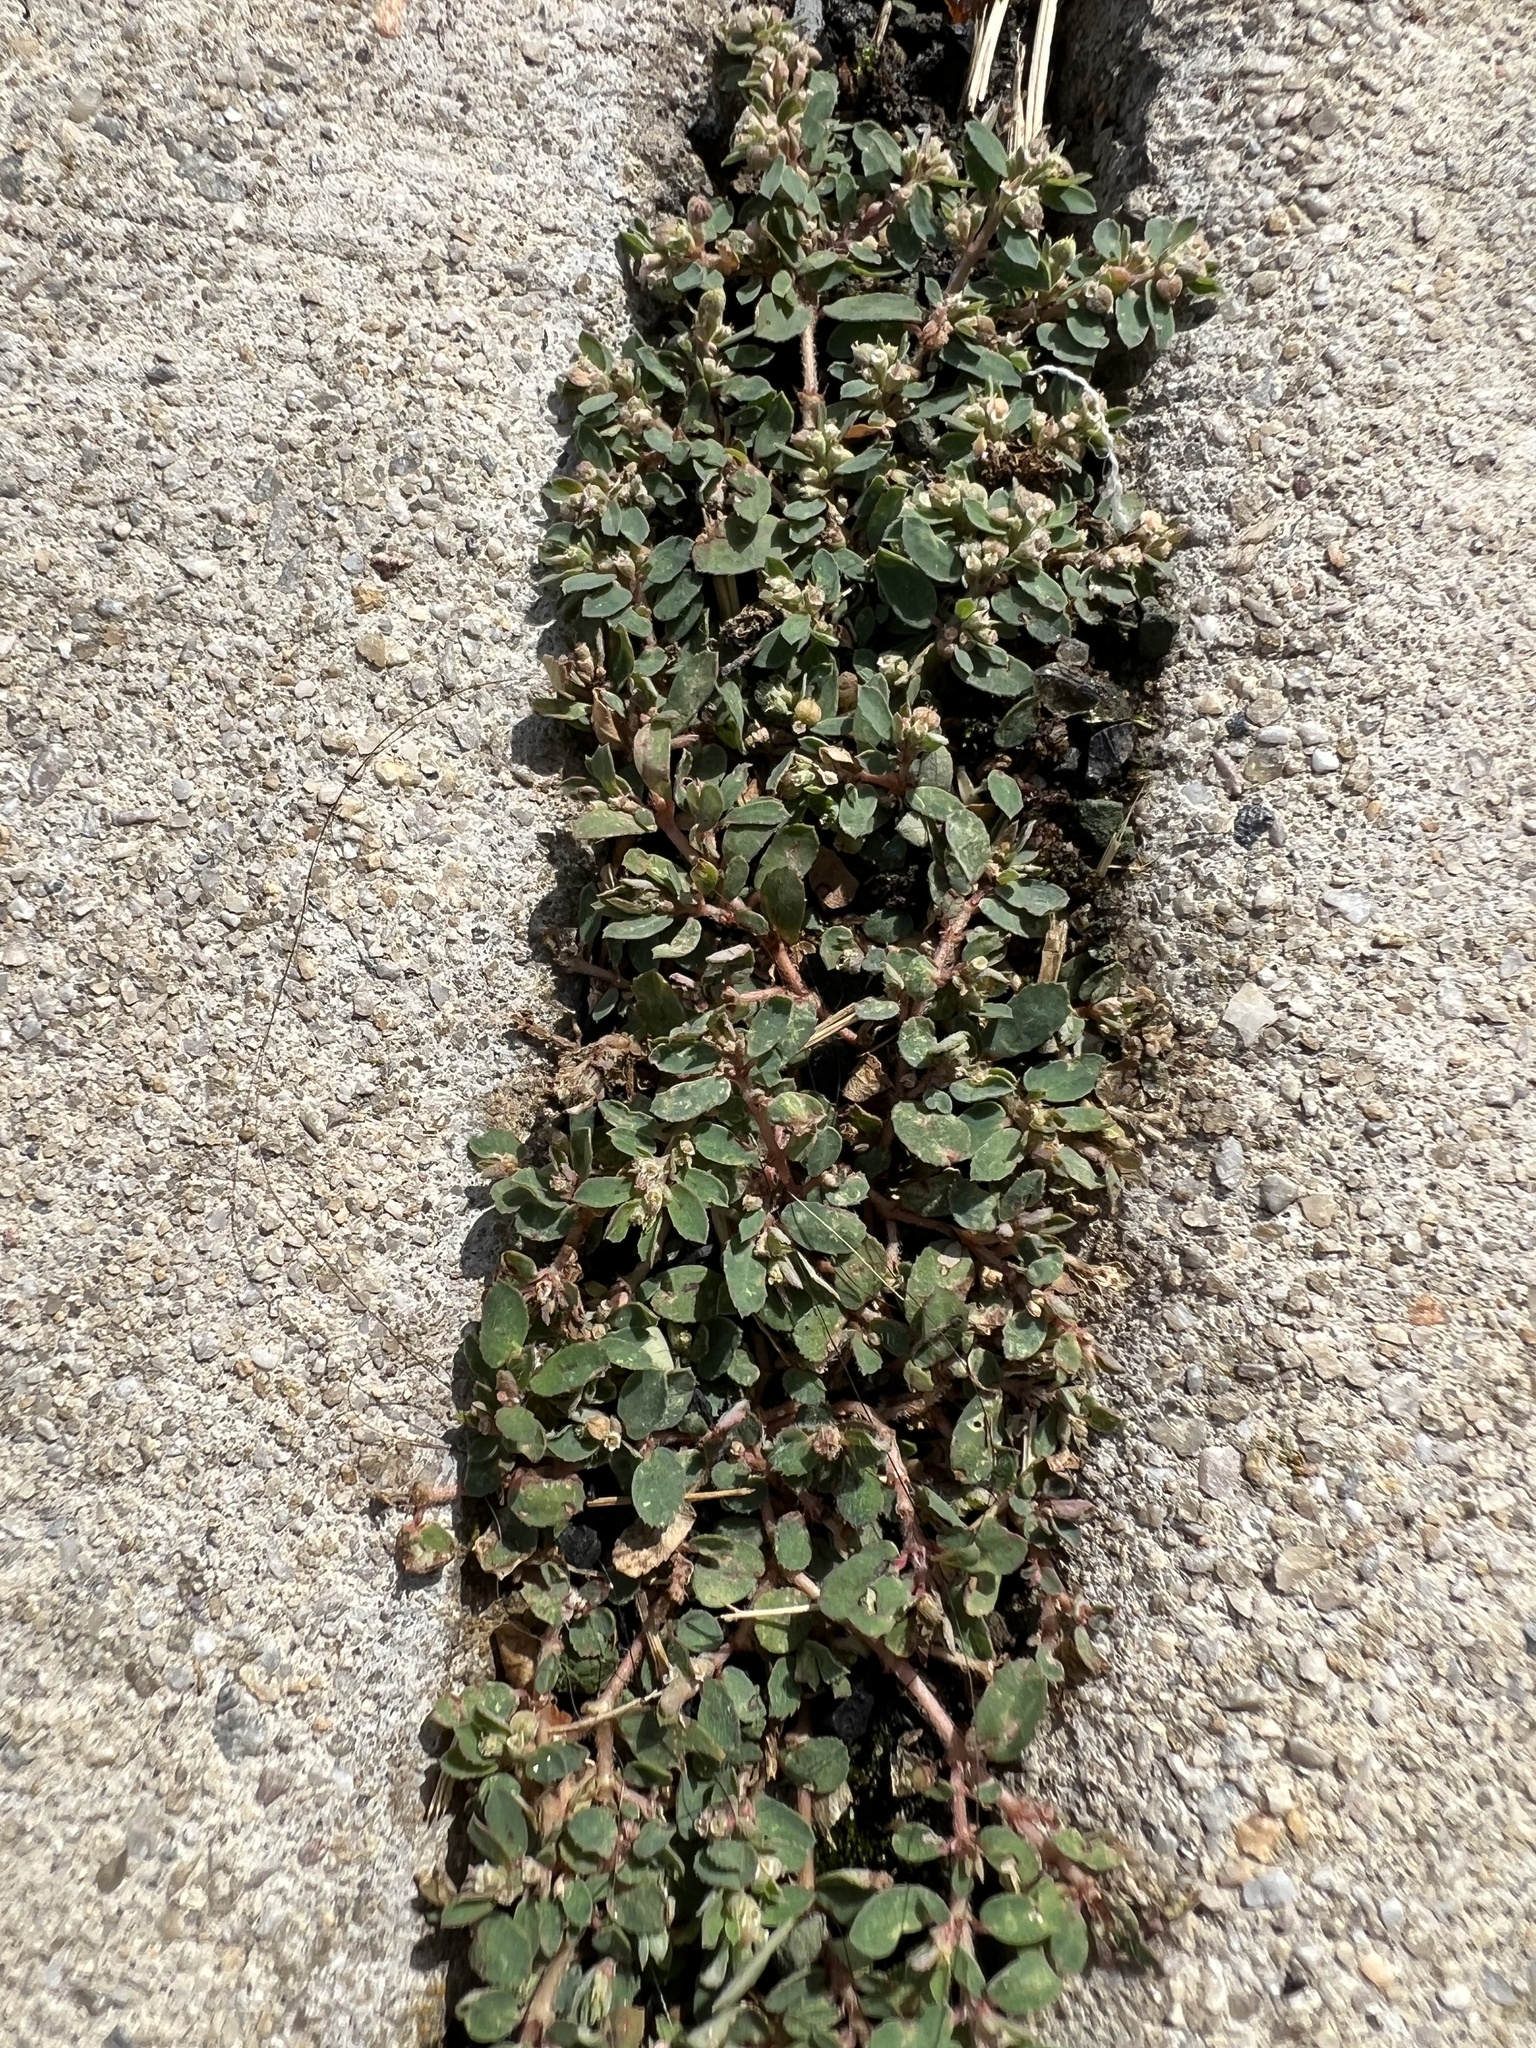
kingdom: Plantae
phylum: Tracheophyta
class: Magnoliopsida
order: Malpighiales
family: Euphorbiaceae
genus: Euphorbia
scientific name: Euphorbia maculata
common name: Spotted spurge
